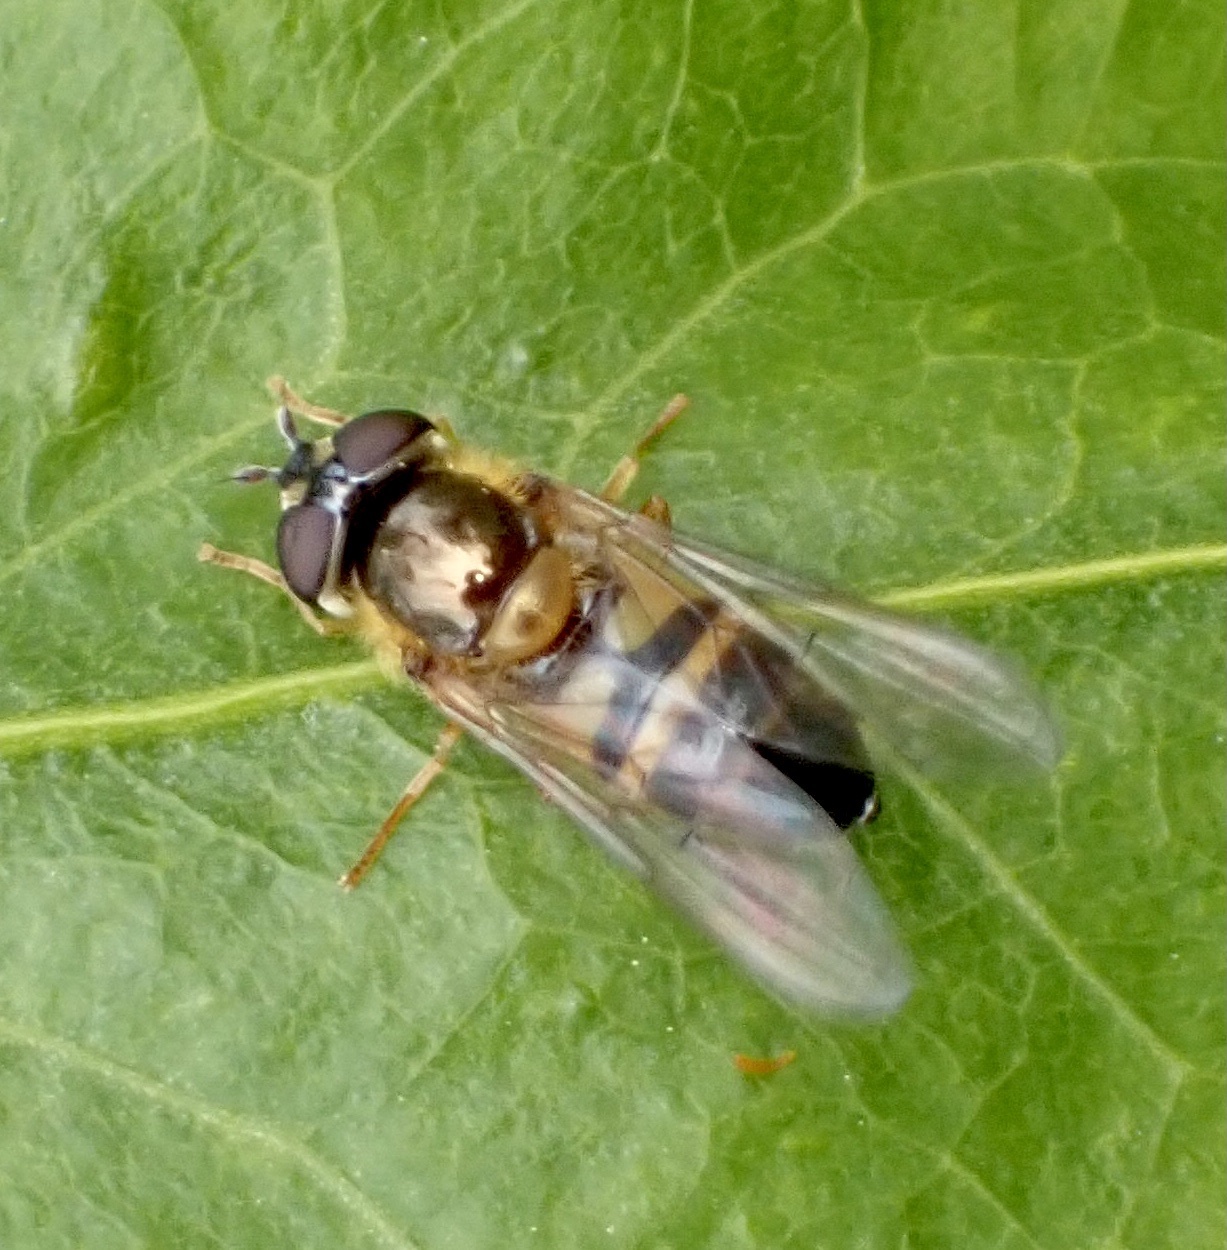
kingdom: Animalia
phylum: Arthropoda
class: Insecta
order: Diptera
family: Syrphidae
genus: Epistrophe
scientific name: Epistrophe eligans
